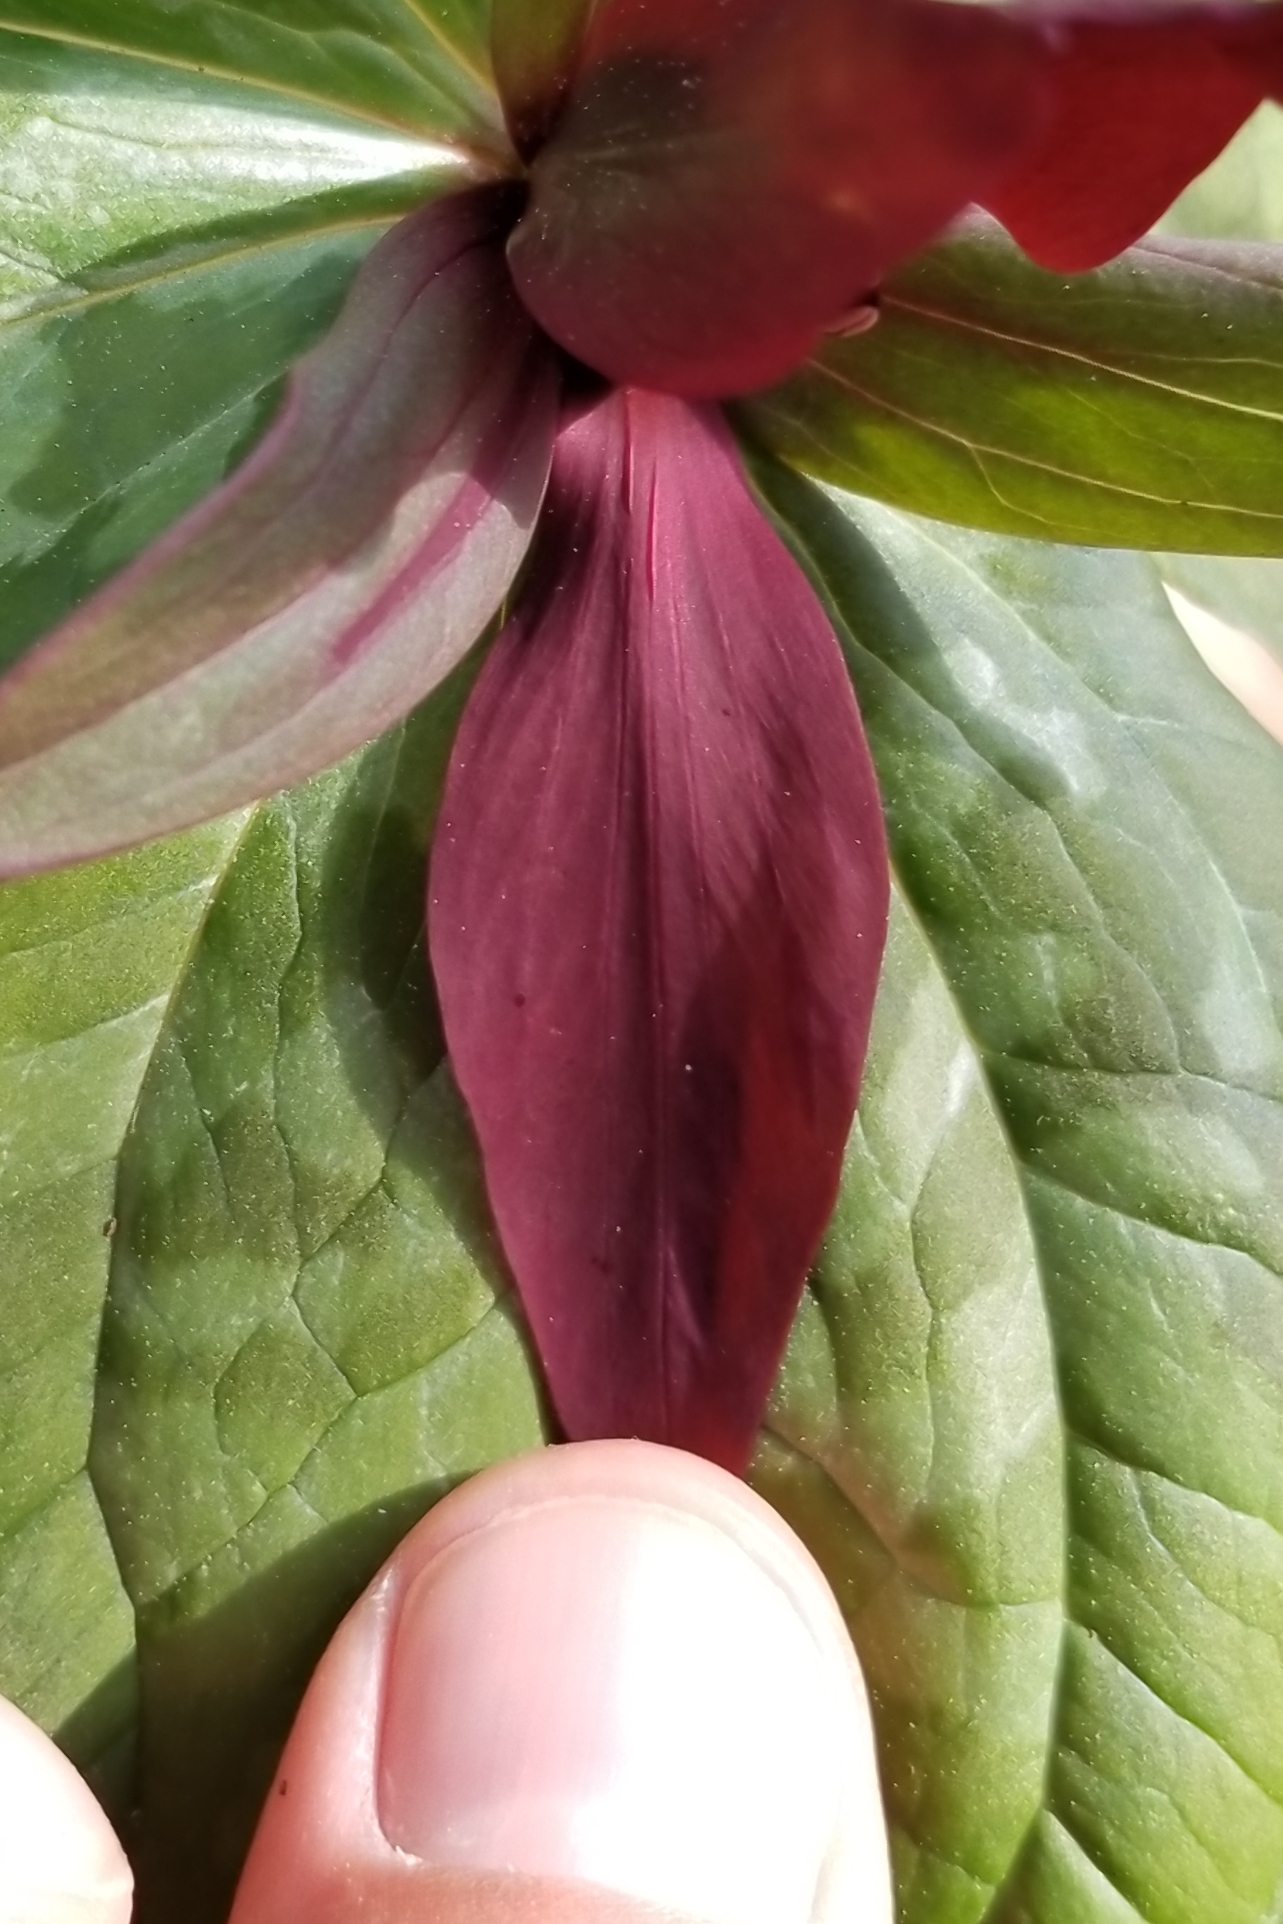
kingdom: Plantae
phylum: Tracheophyta
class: Liliopsida
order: Liliales
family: Melanthiaceae
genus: Trillium
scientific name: Trillium cuneatum
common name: Cuneate trillium
